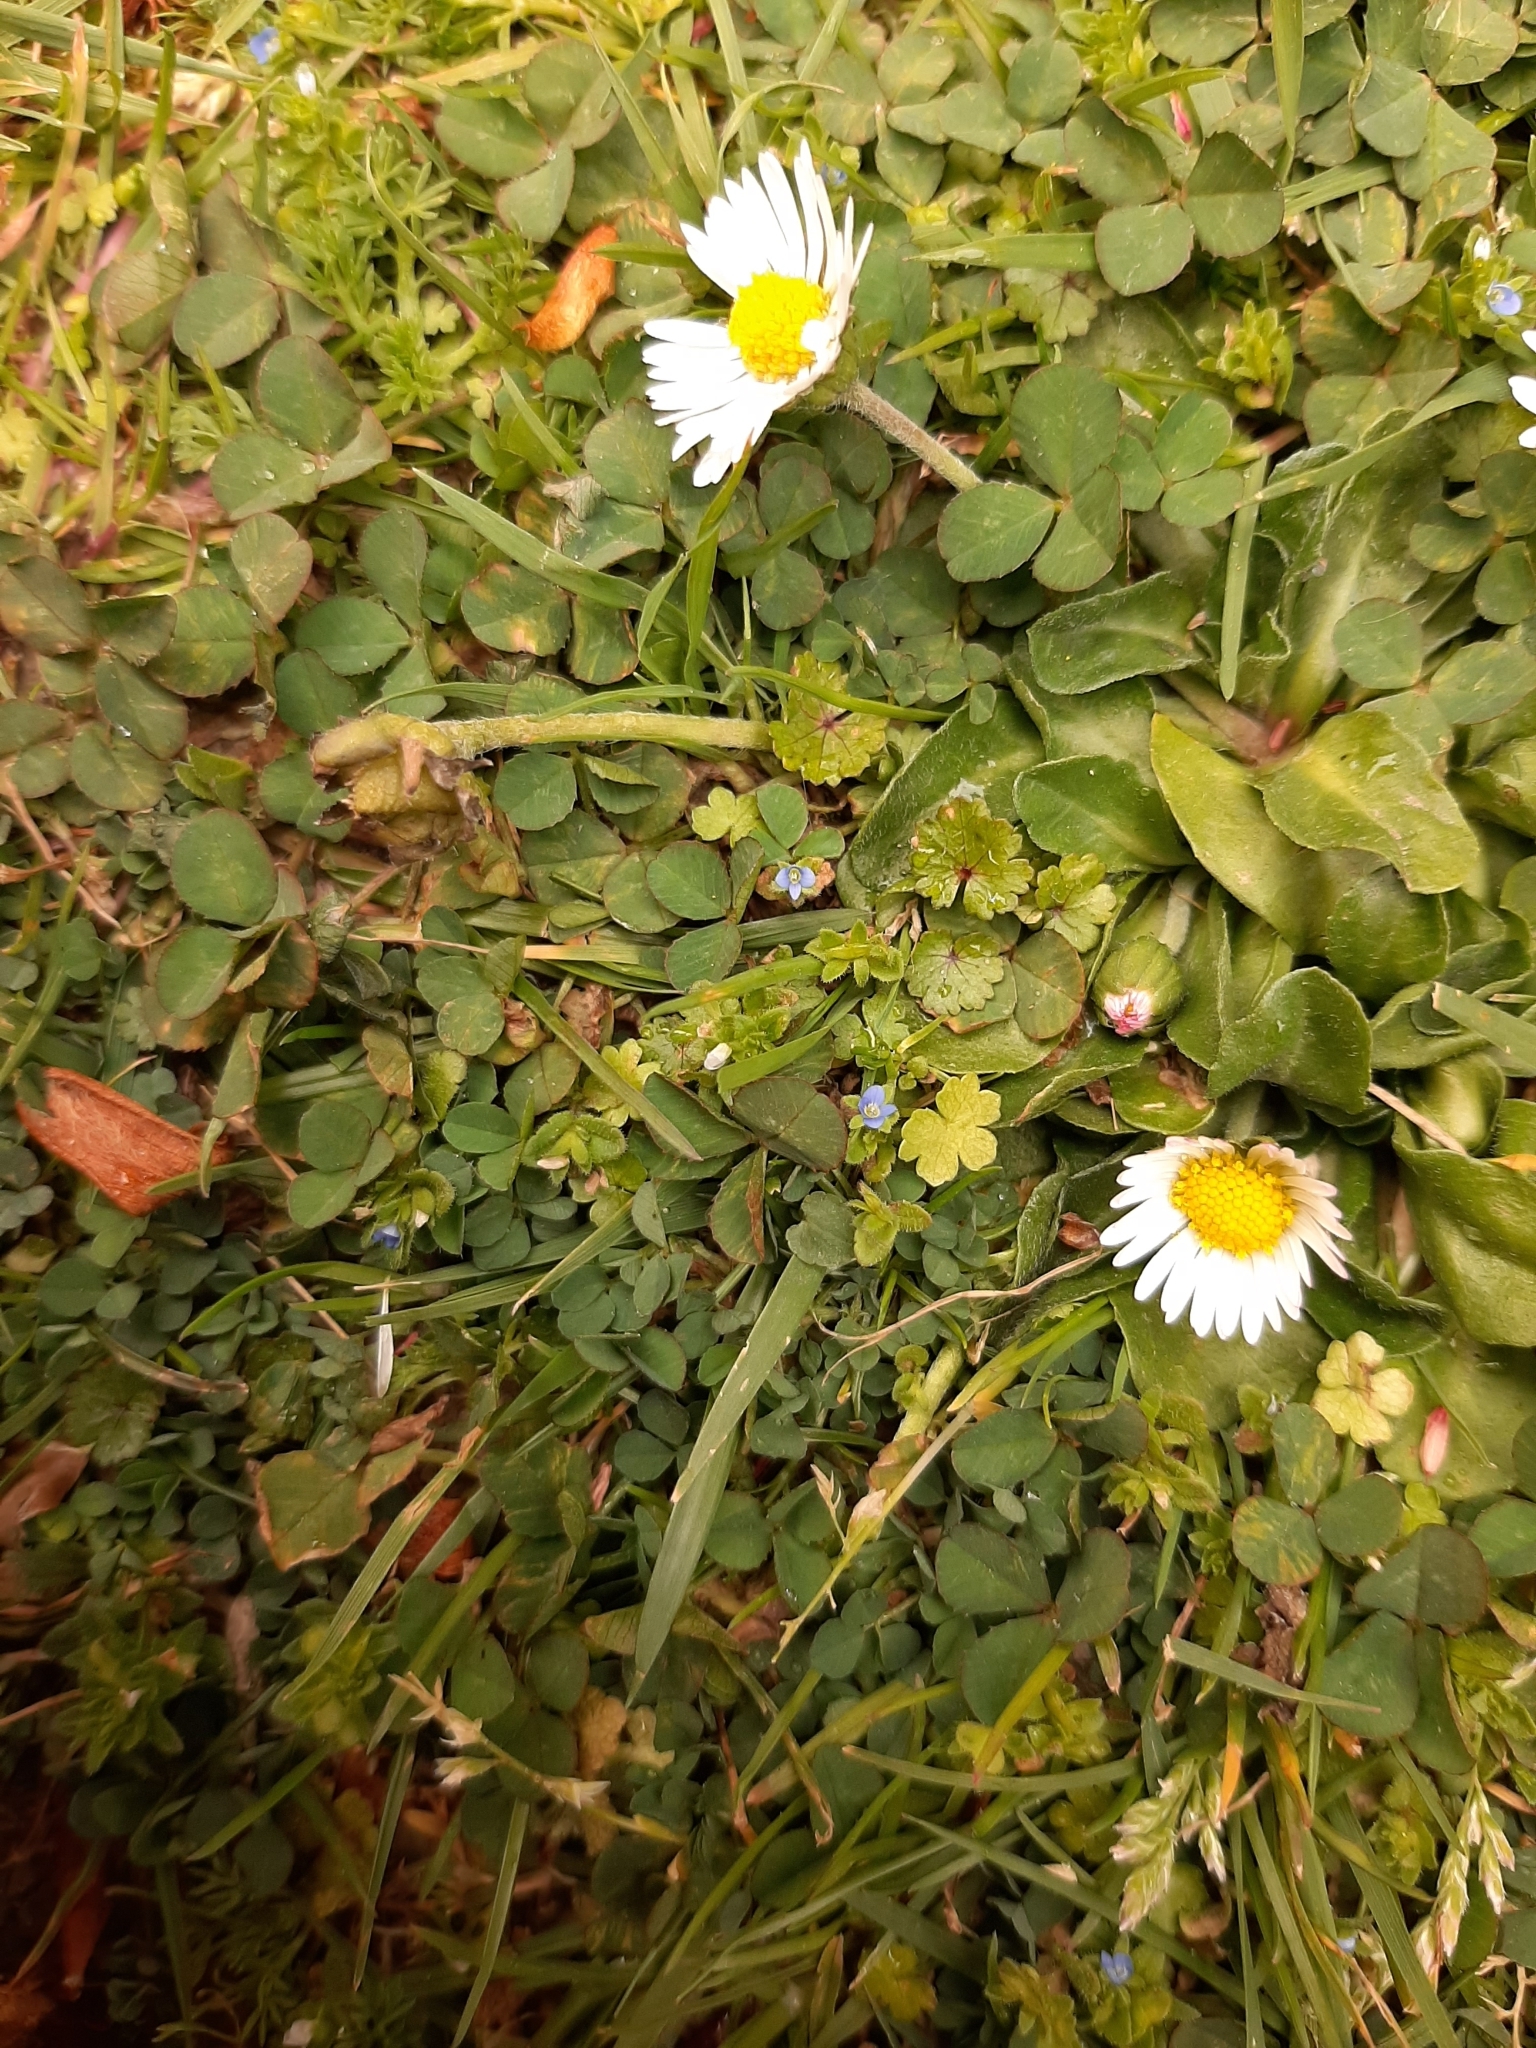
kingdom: Plantae
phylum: Tracheophyta
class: Magnoliopsida
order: Lamiales
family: Plantaginaceae
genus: Veronica
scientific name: Veronica arvensis
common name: Corn speedwell
